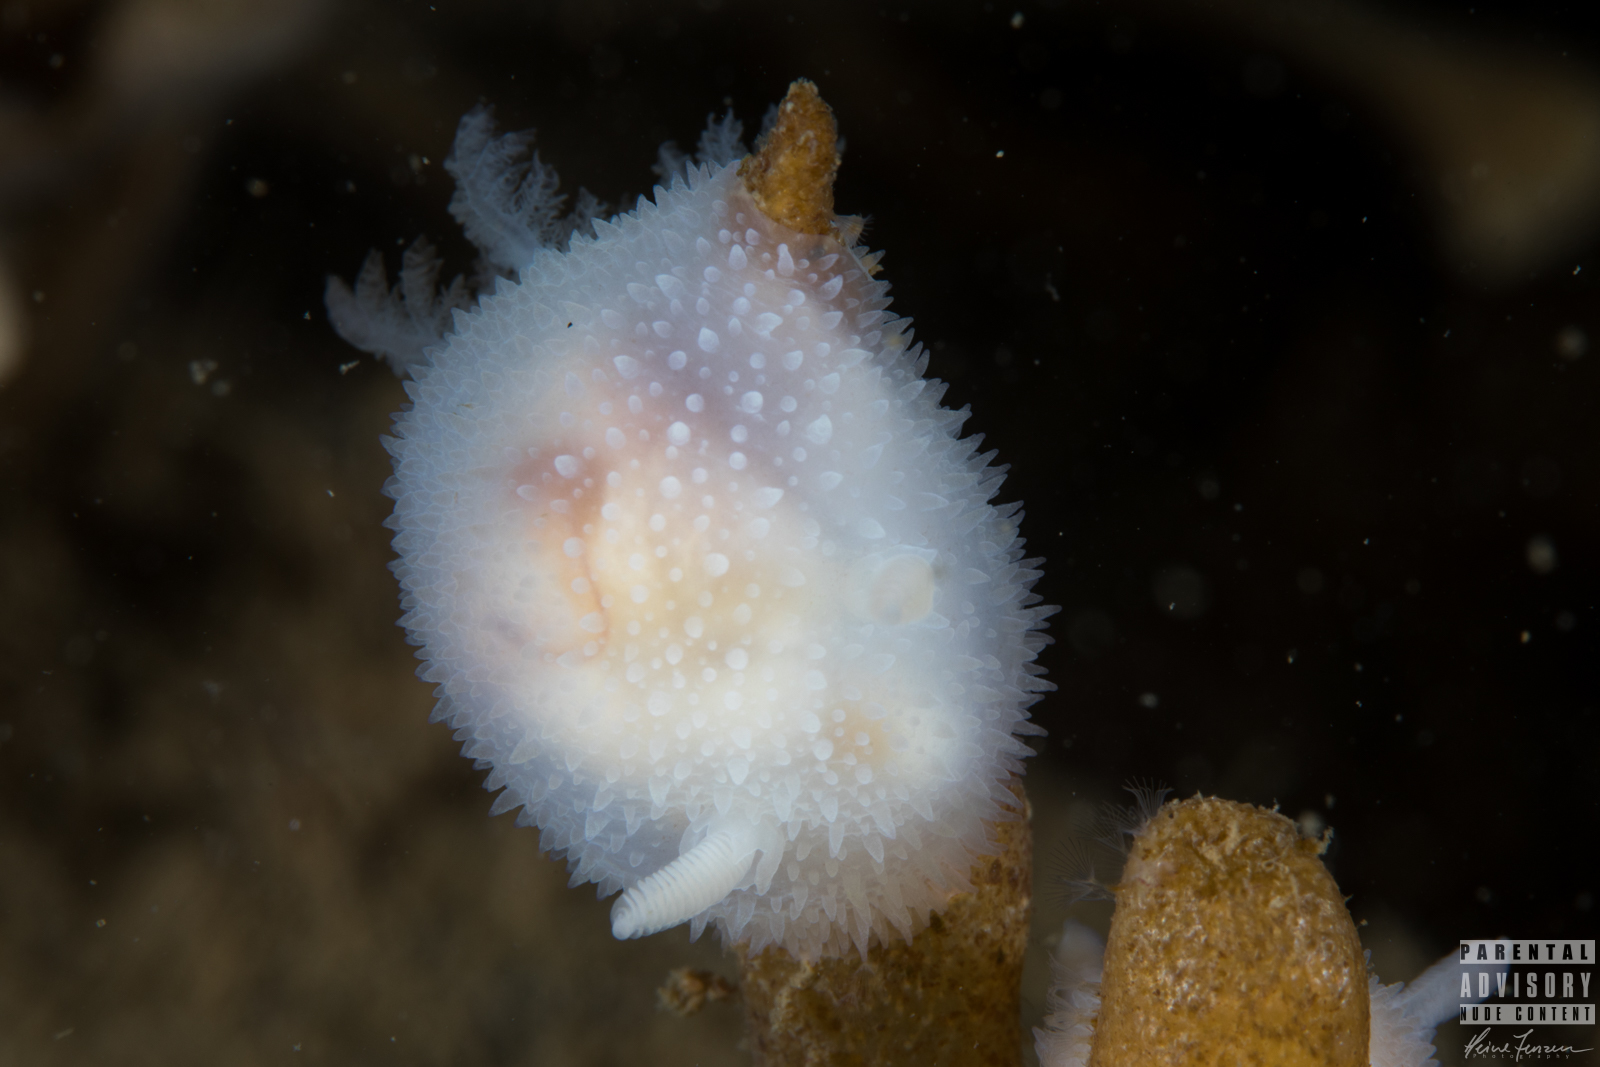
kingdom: Animalia
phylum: Mollusca
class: Gastropoda
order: Nudibranchia
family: Onchidorididae
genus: Acanthodoris
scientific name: Acanthodoris pilosa
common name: Hairy spiny doris
